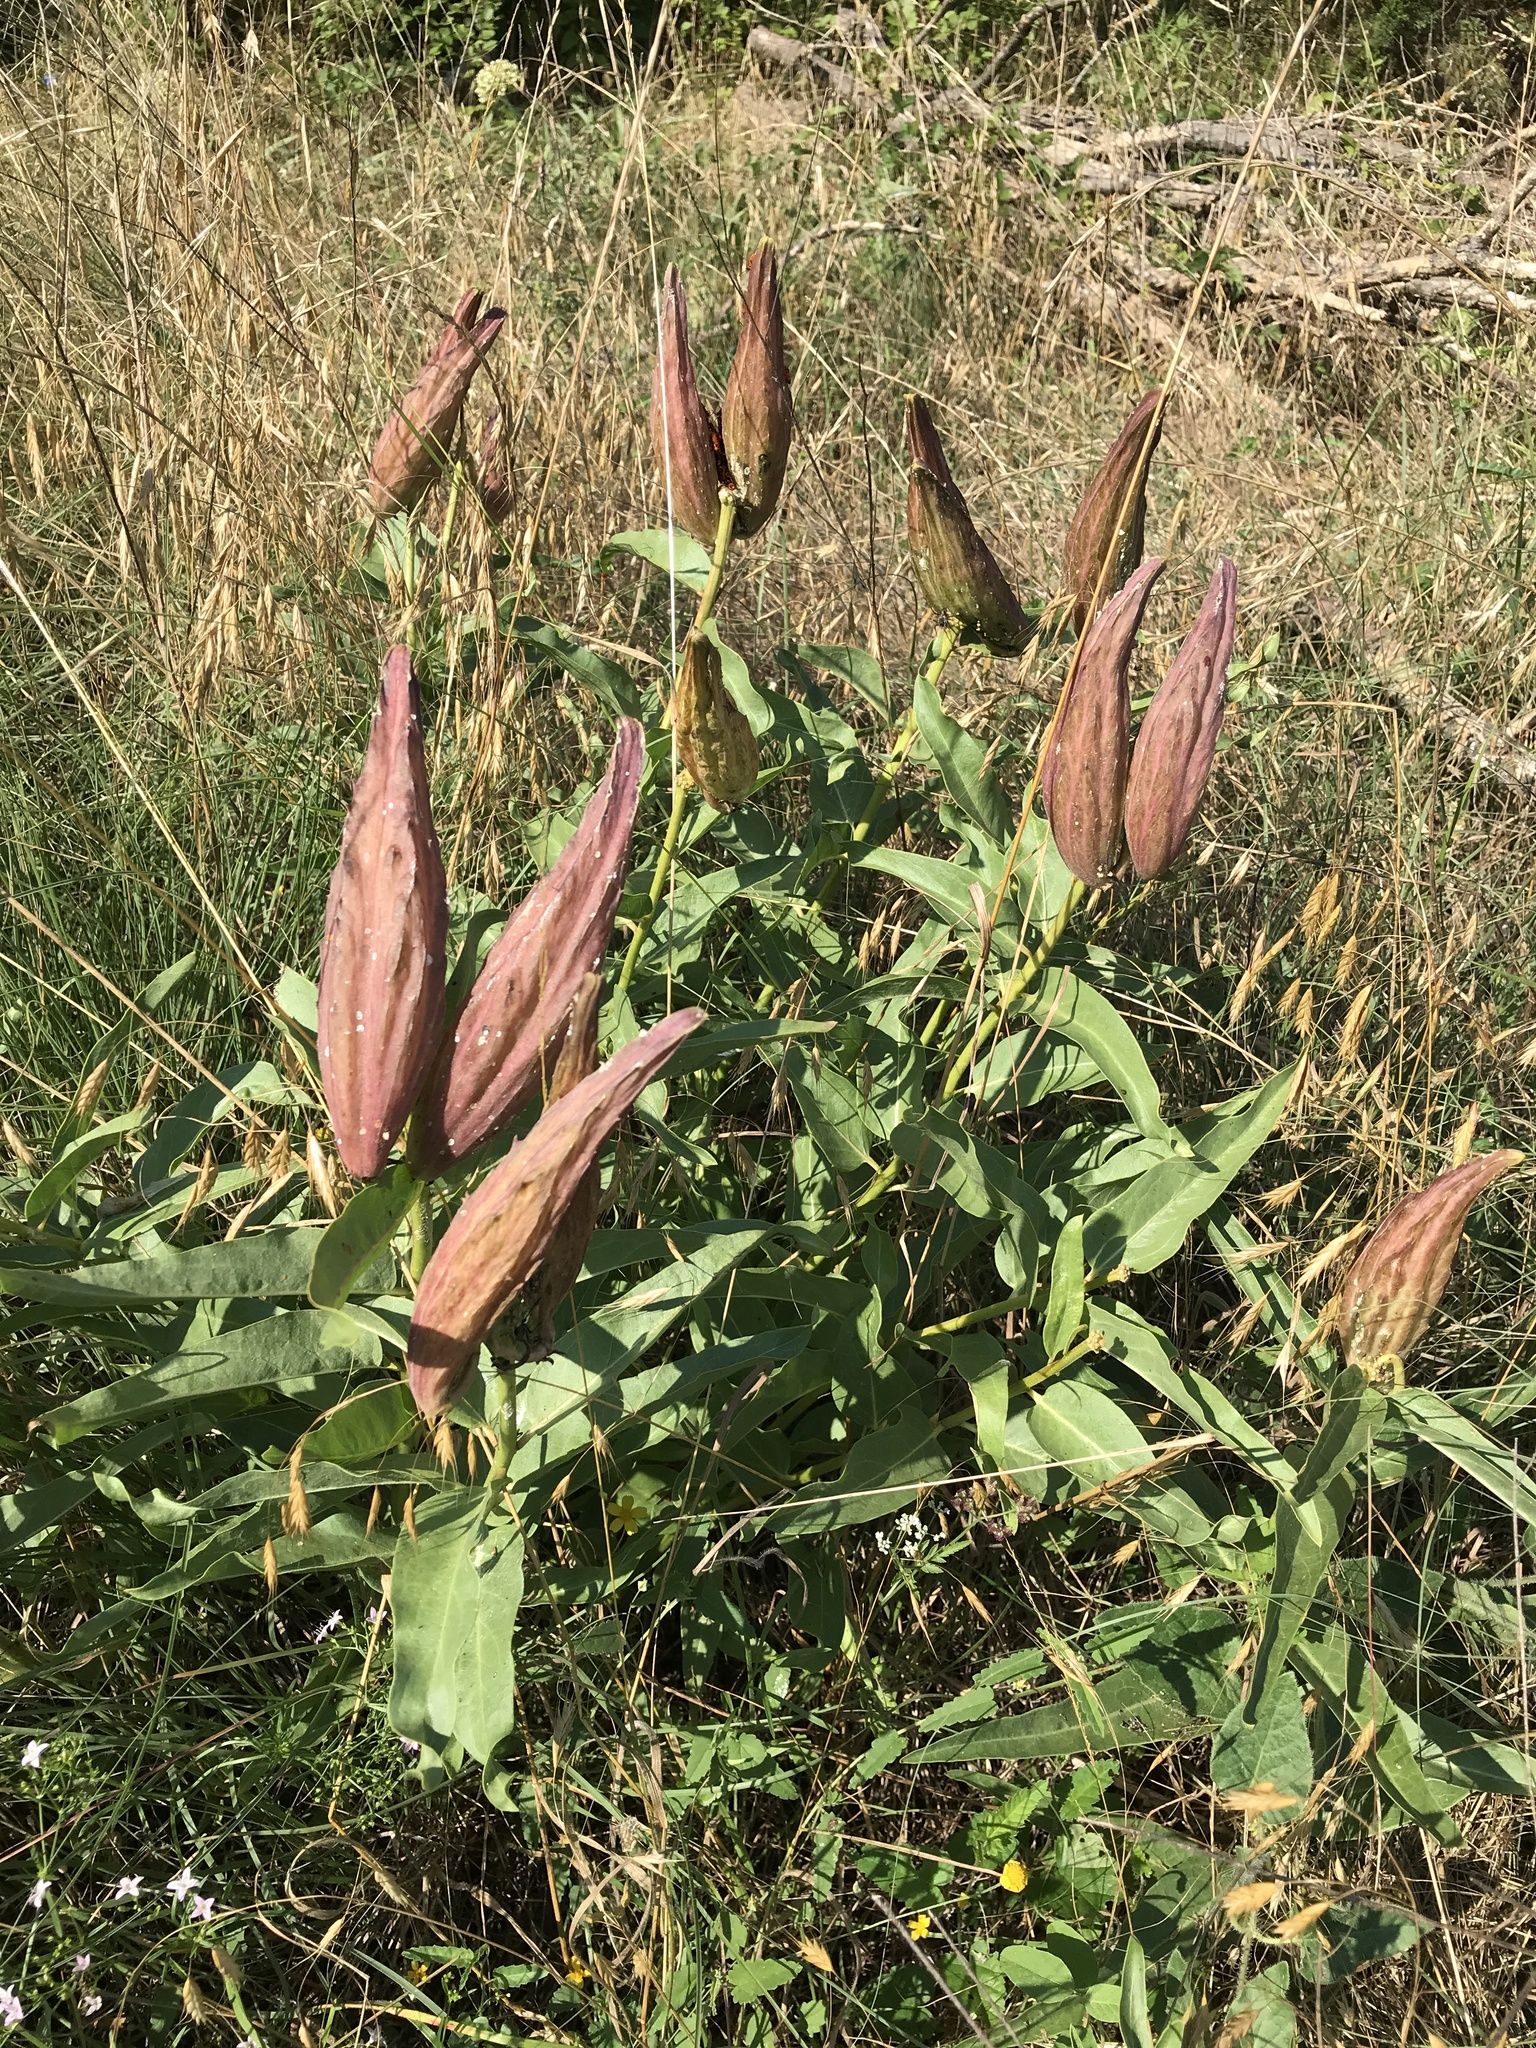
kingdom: Plantae
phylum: Tracheophyta
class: Magnoliopsida
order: Gentianales
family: Apocynaceae
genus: Asclepias
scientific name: Asclepias asperula
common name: Antelope horns
